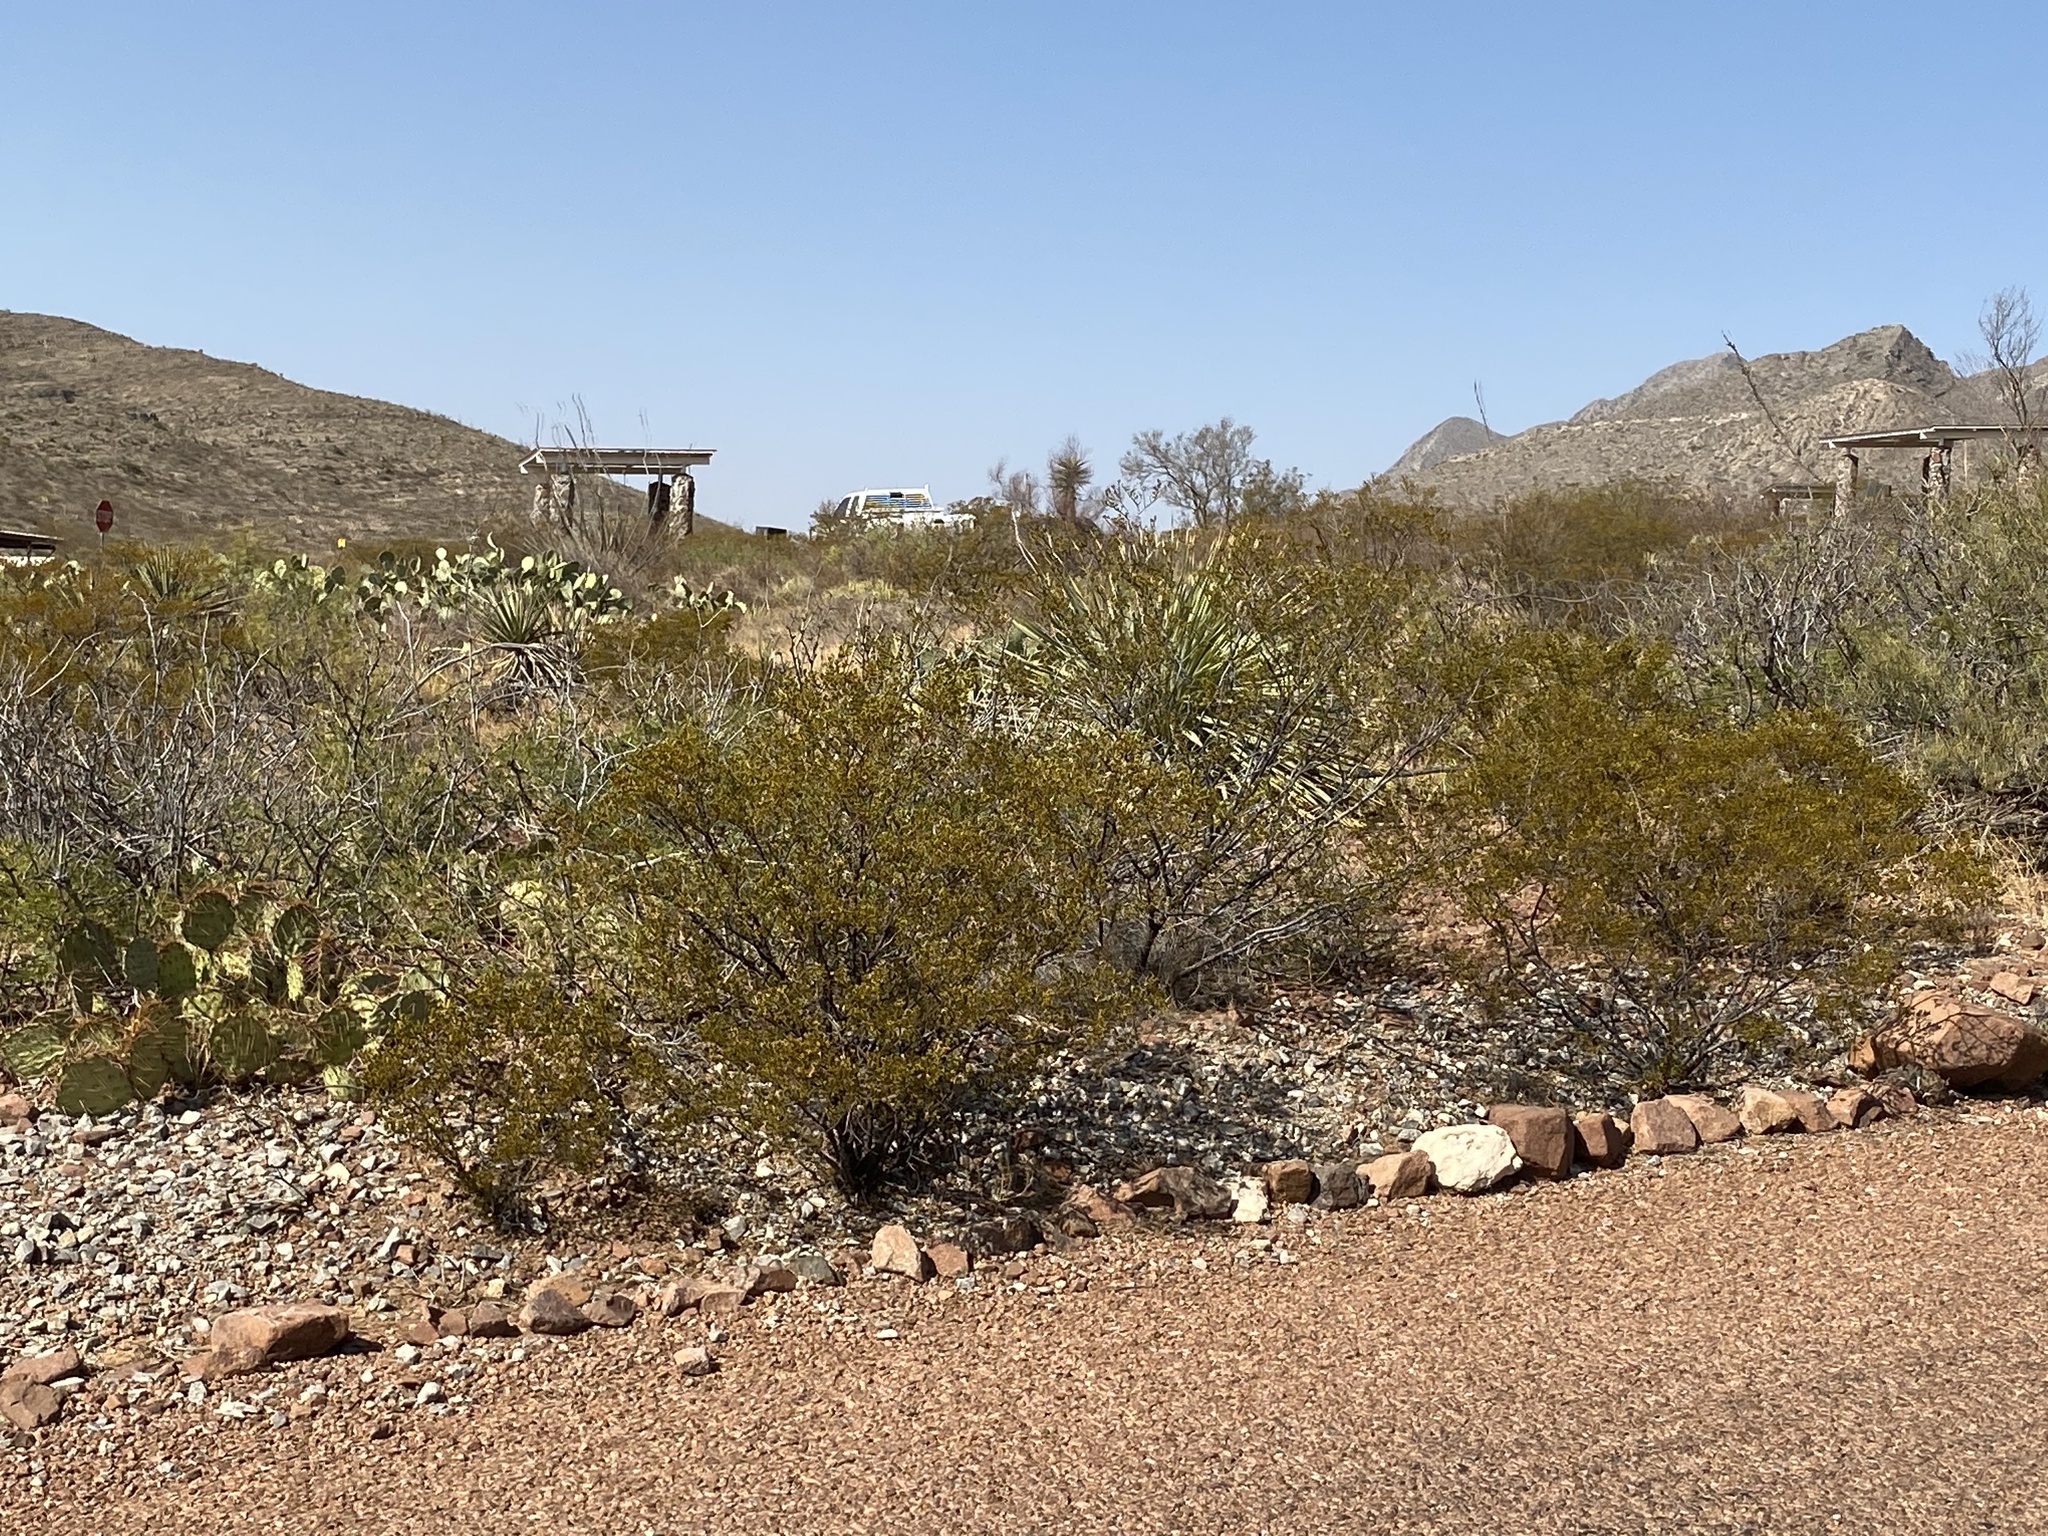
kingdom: Plantae
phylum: Tracheophyta
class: Magnoliopsida
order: Zygophyllales
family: Zygophyllaceae
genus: Larrea
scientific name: Larrea tridentata
